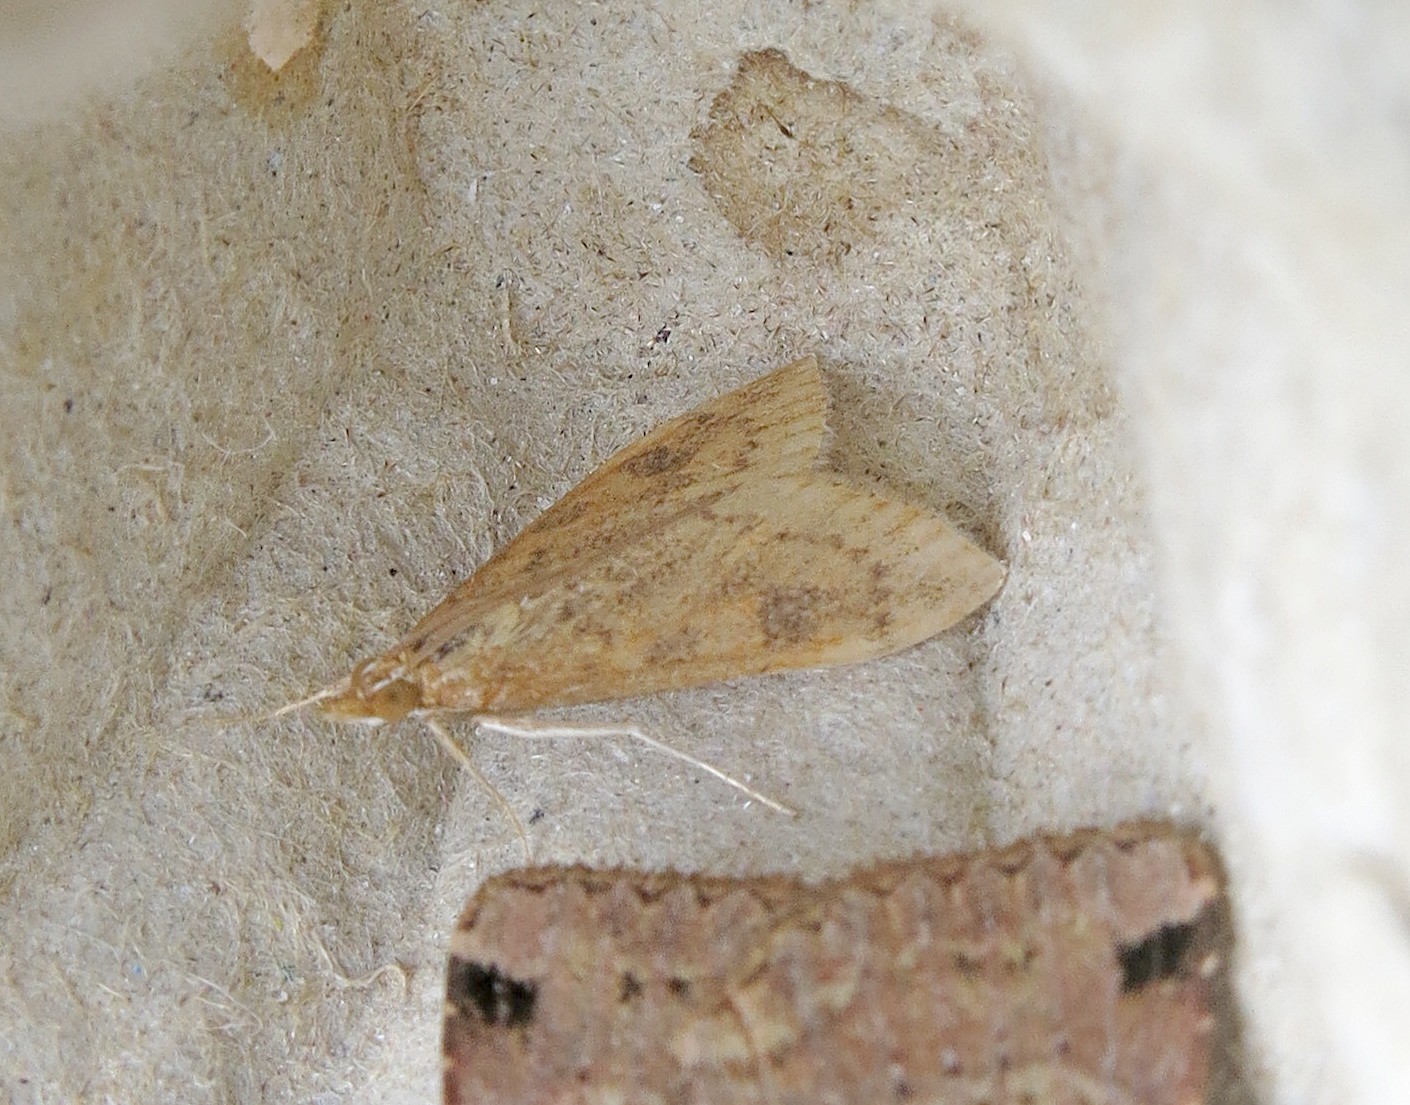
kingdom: Animalia
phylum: Arthropoda
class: Insecta
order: Lepidoptera
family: Crambidae
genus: Udea
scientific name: Udea ferrugalis
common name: Rusty dot
